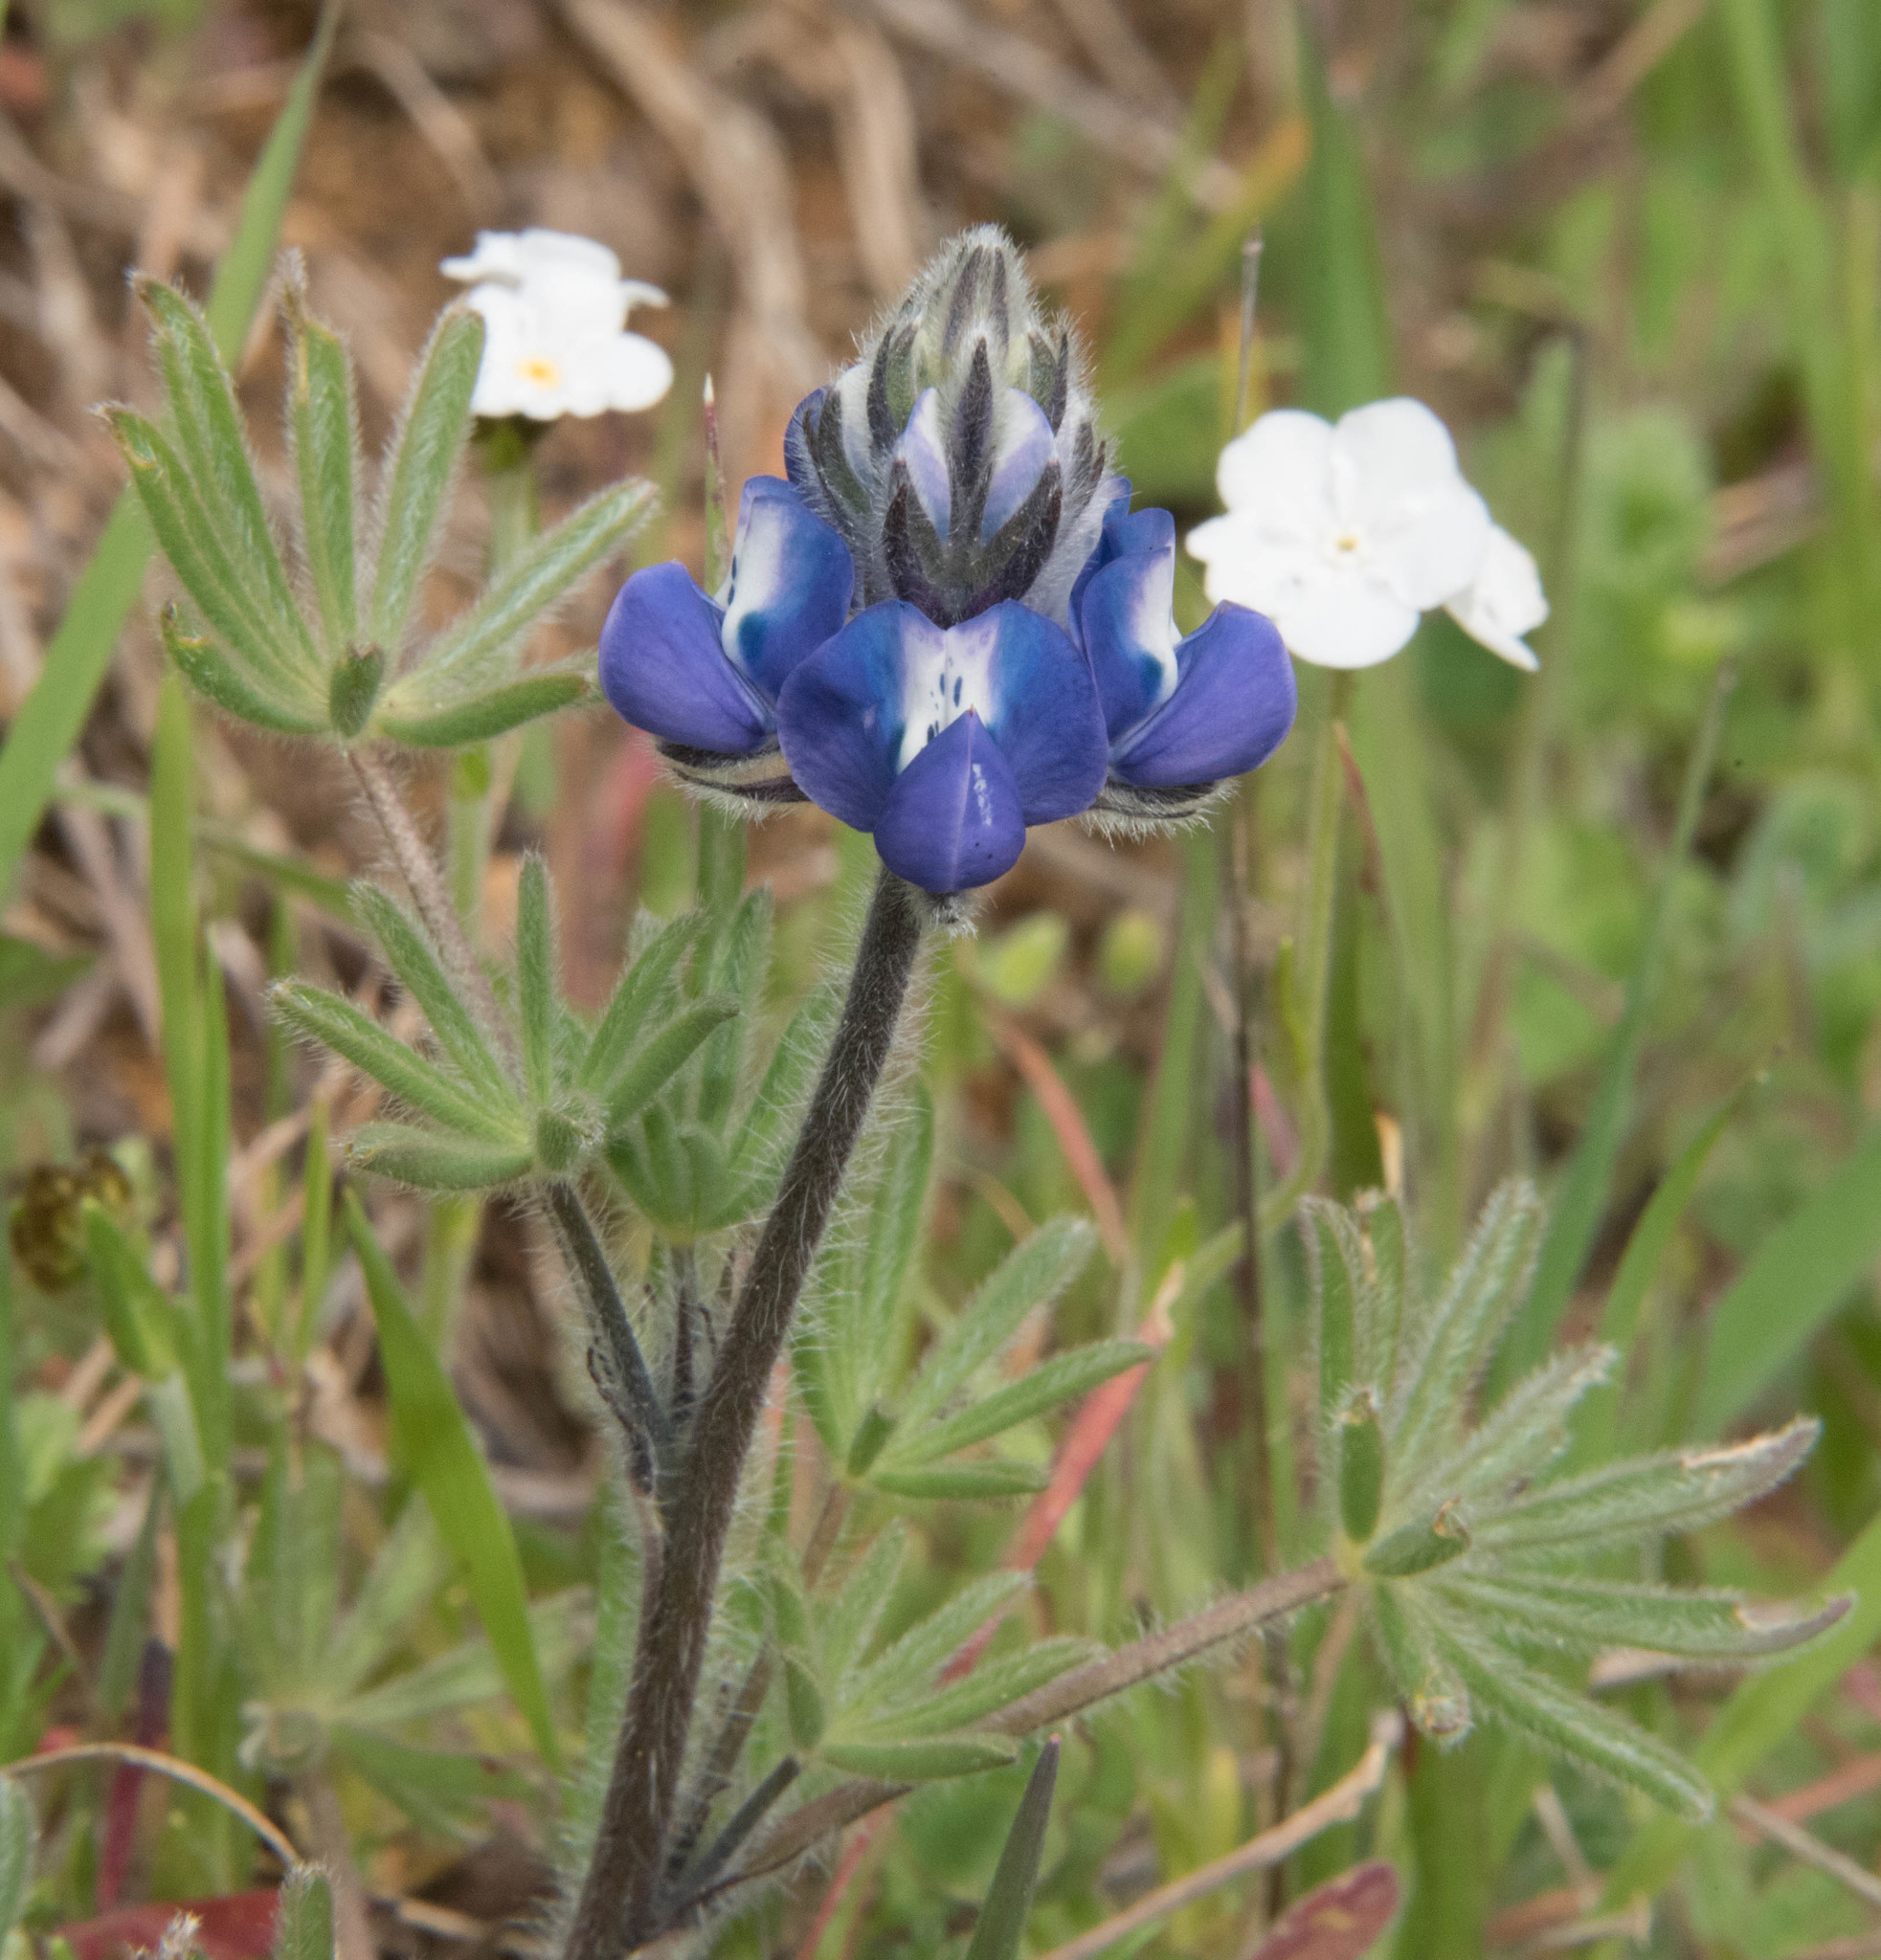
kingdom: Plantae
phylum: Tracheophyta
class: Magnoliopsida
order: Fabales
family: Fabaceae
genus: Lupinus
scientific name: Lupinus bicolor
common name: Miniature lupine
